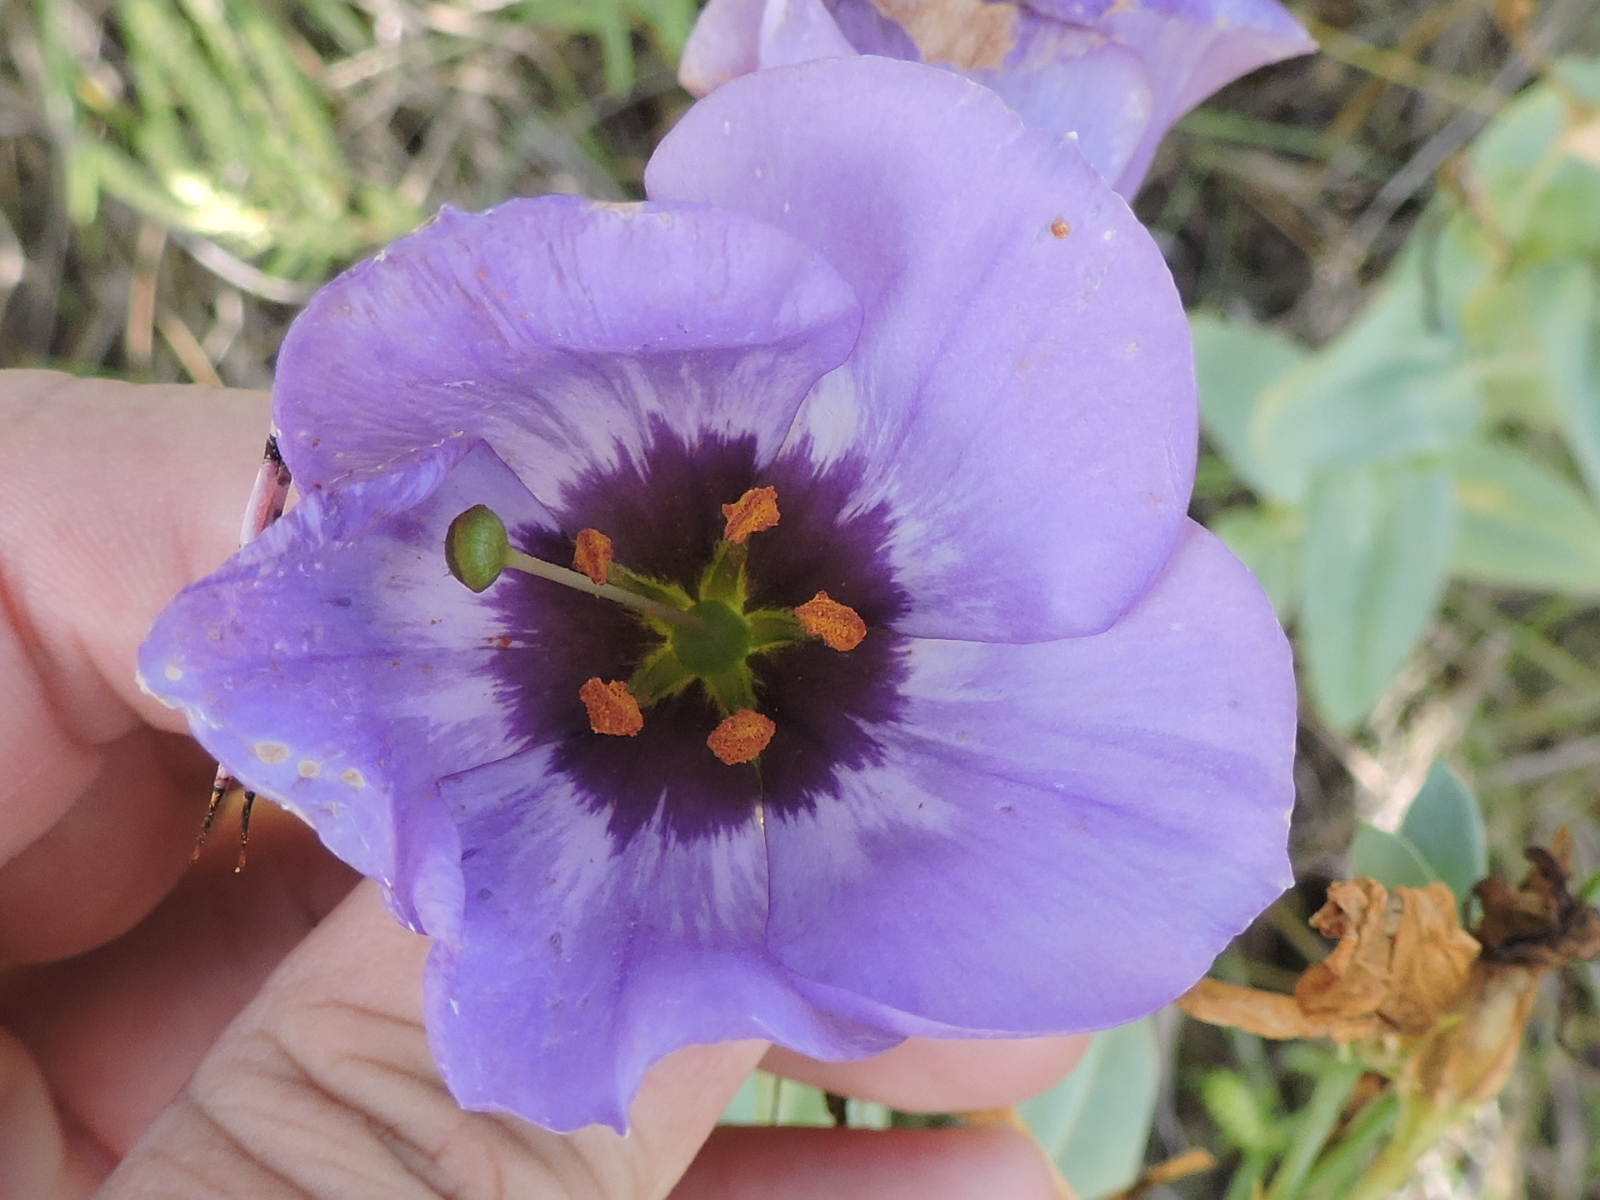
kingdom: Plantae
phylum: Tracheophyta
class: Magnoliopsida
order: Gentianales
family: Gentianaceae
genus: Eustoma
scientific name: Eustoma exaltatum
